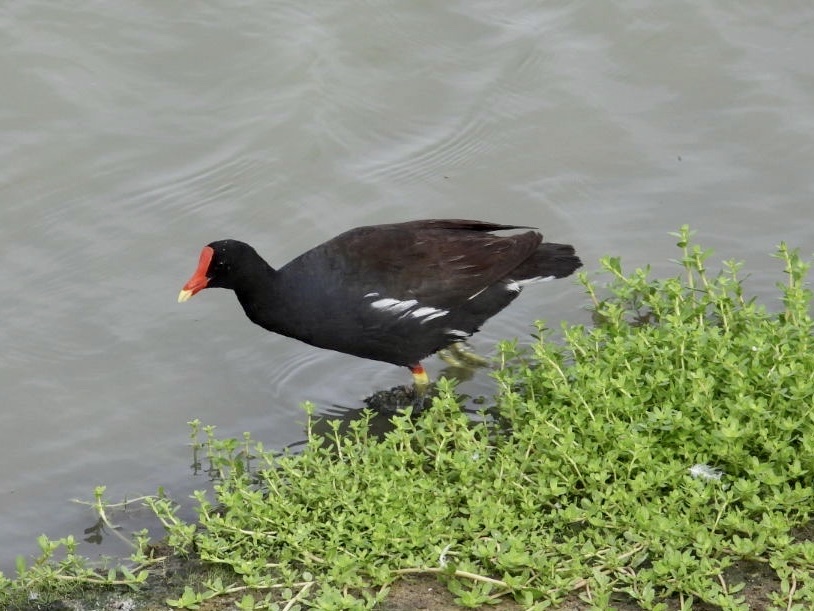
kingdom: Animalia
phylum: Chordata
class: Aves
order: Gruiformes
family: Rallidae
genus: Gallinula
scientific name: Gallinula chloropus
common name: Common moorhen
